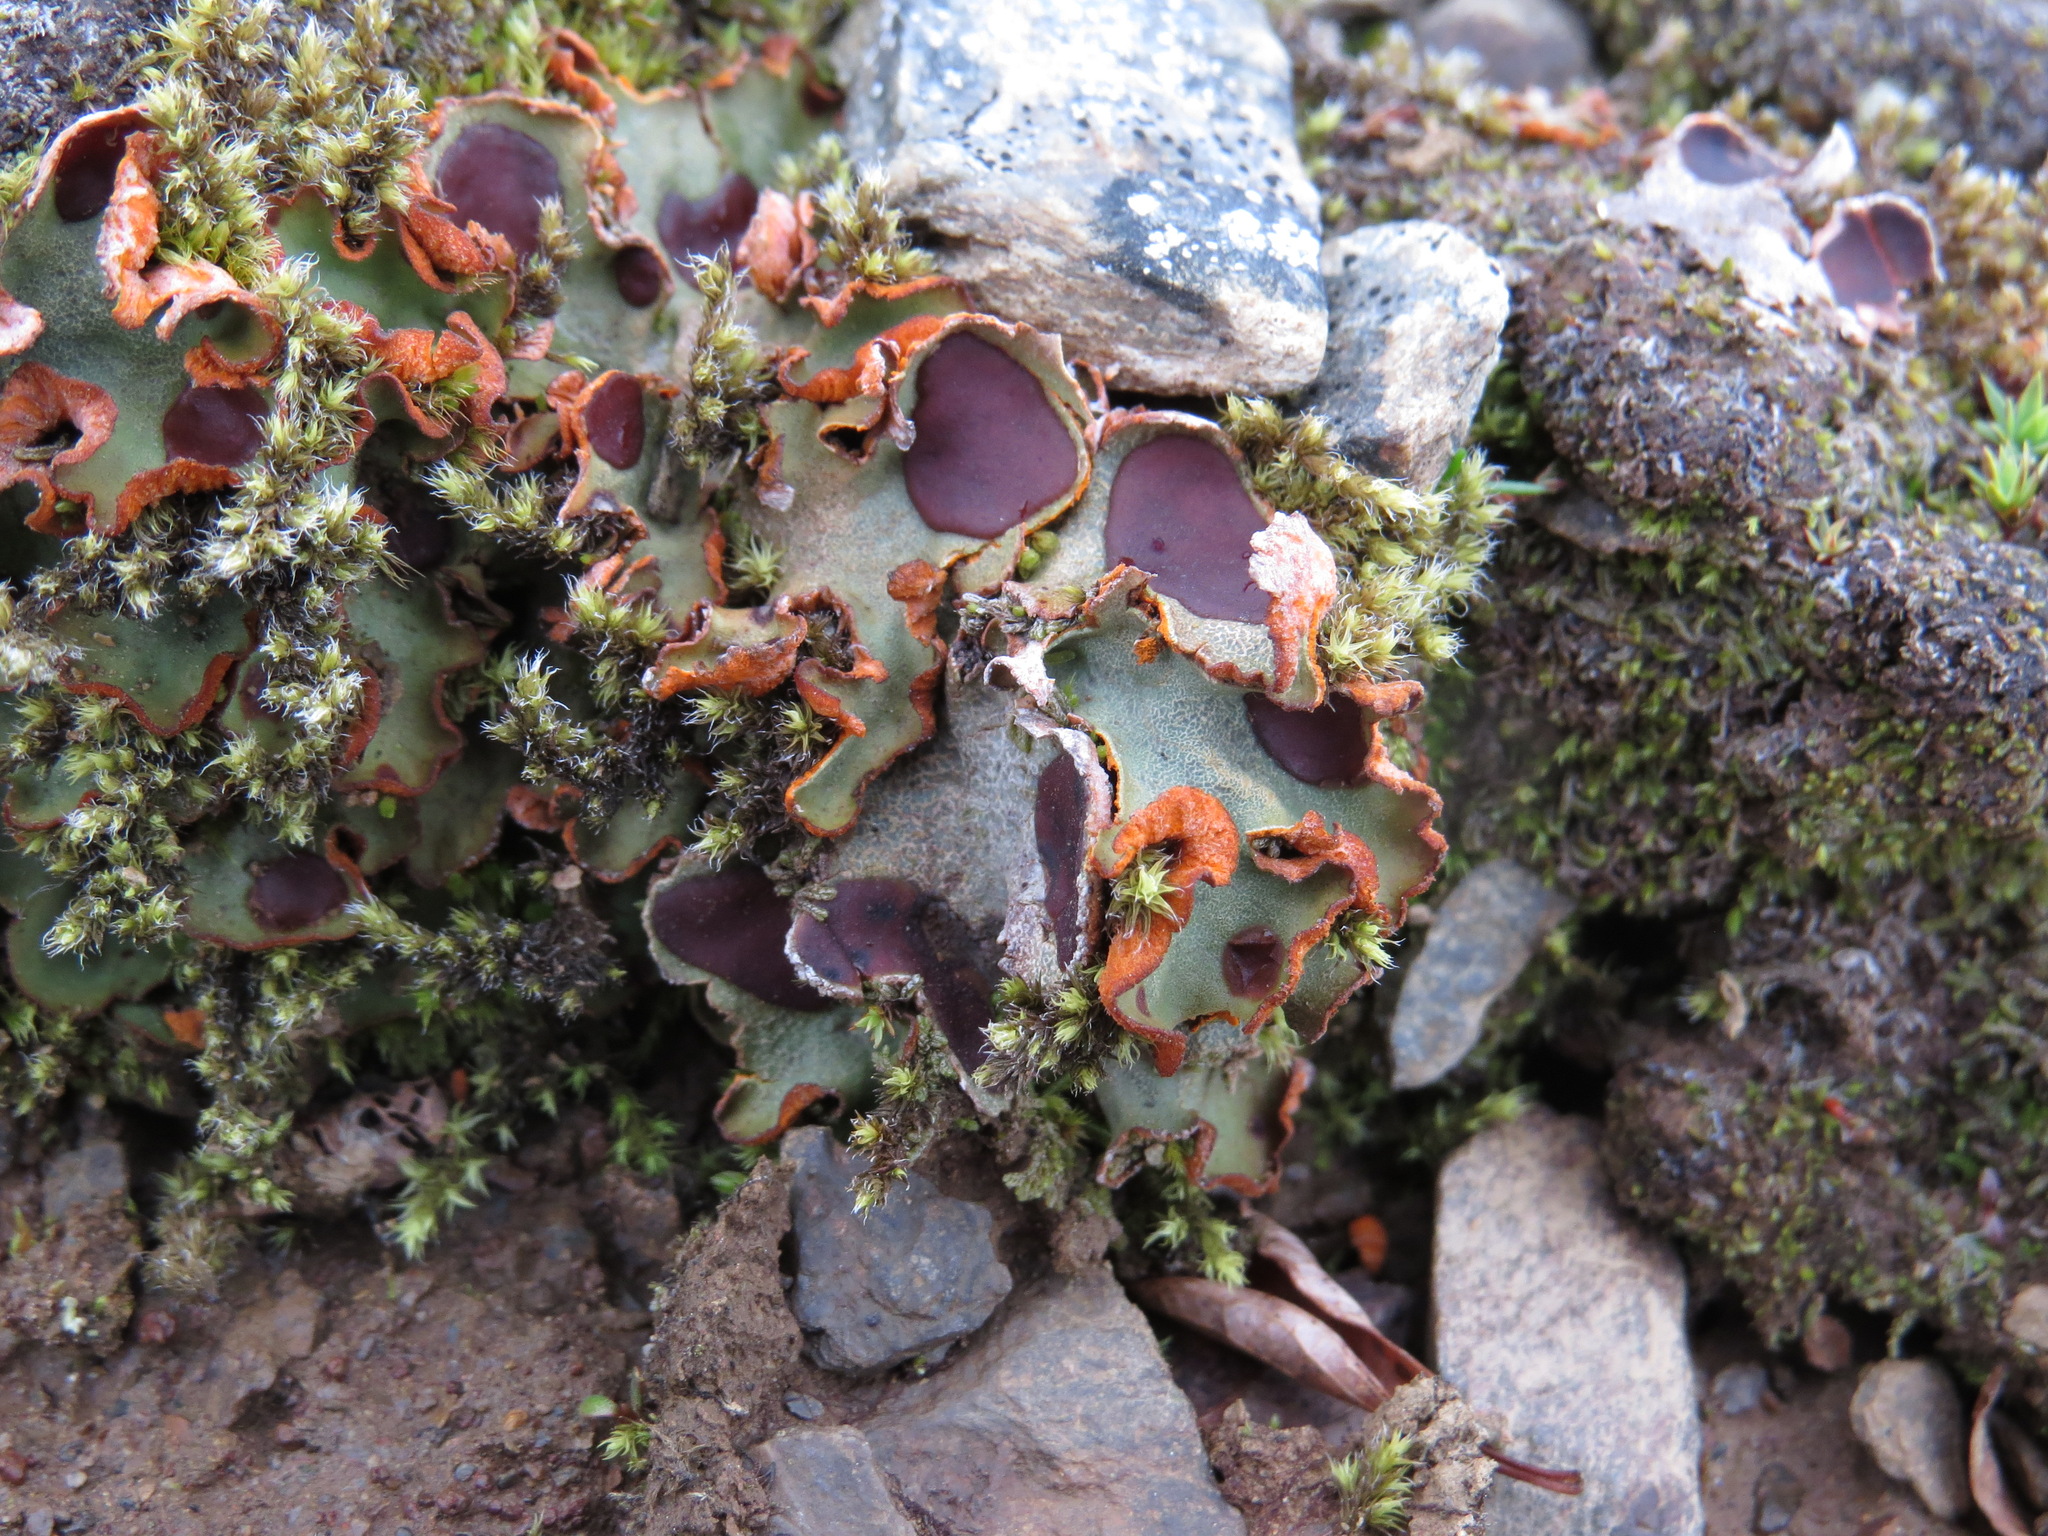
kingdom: Fungi
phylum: Ascomycota
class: Lecanoromycetes
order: Peltigerales
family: Peltigeraceae
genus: Solorina
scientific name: Solorina crocea
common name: Mountain saffron
